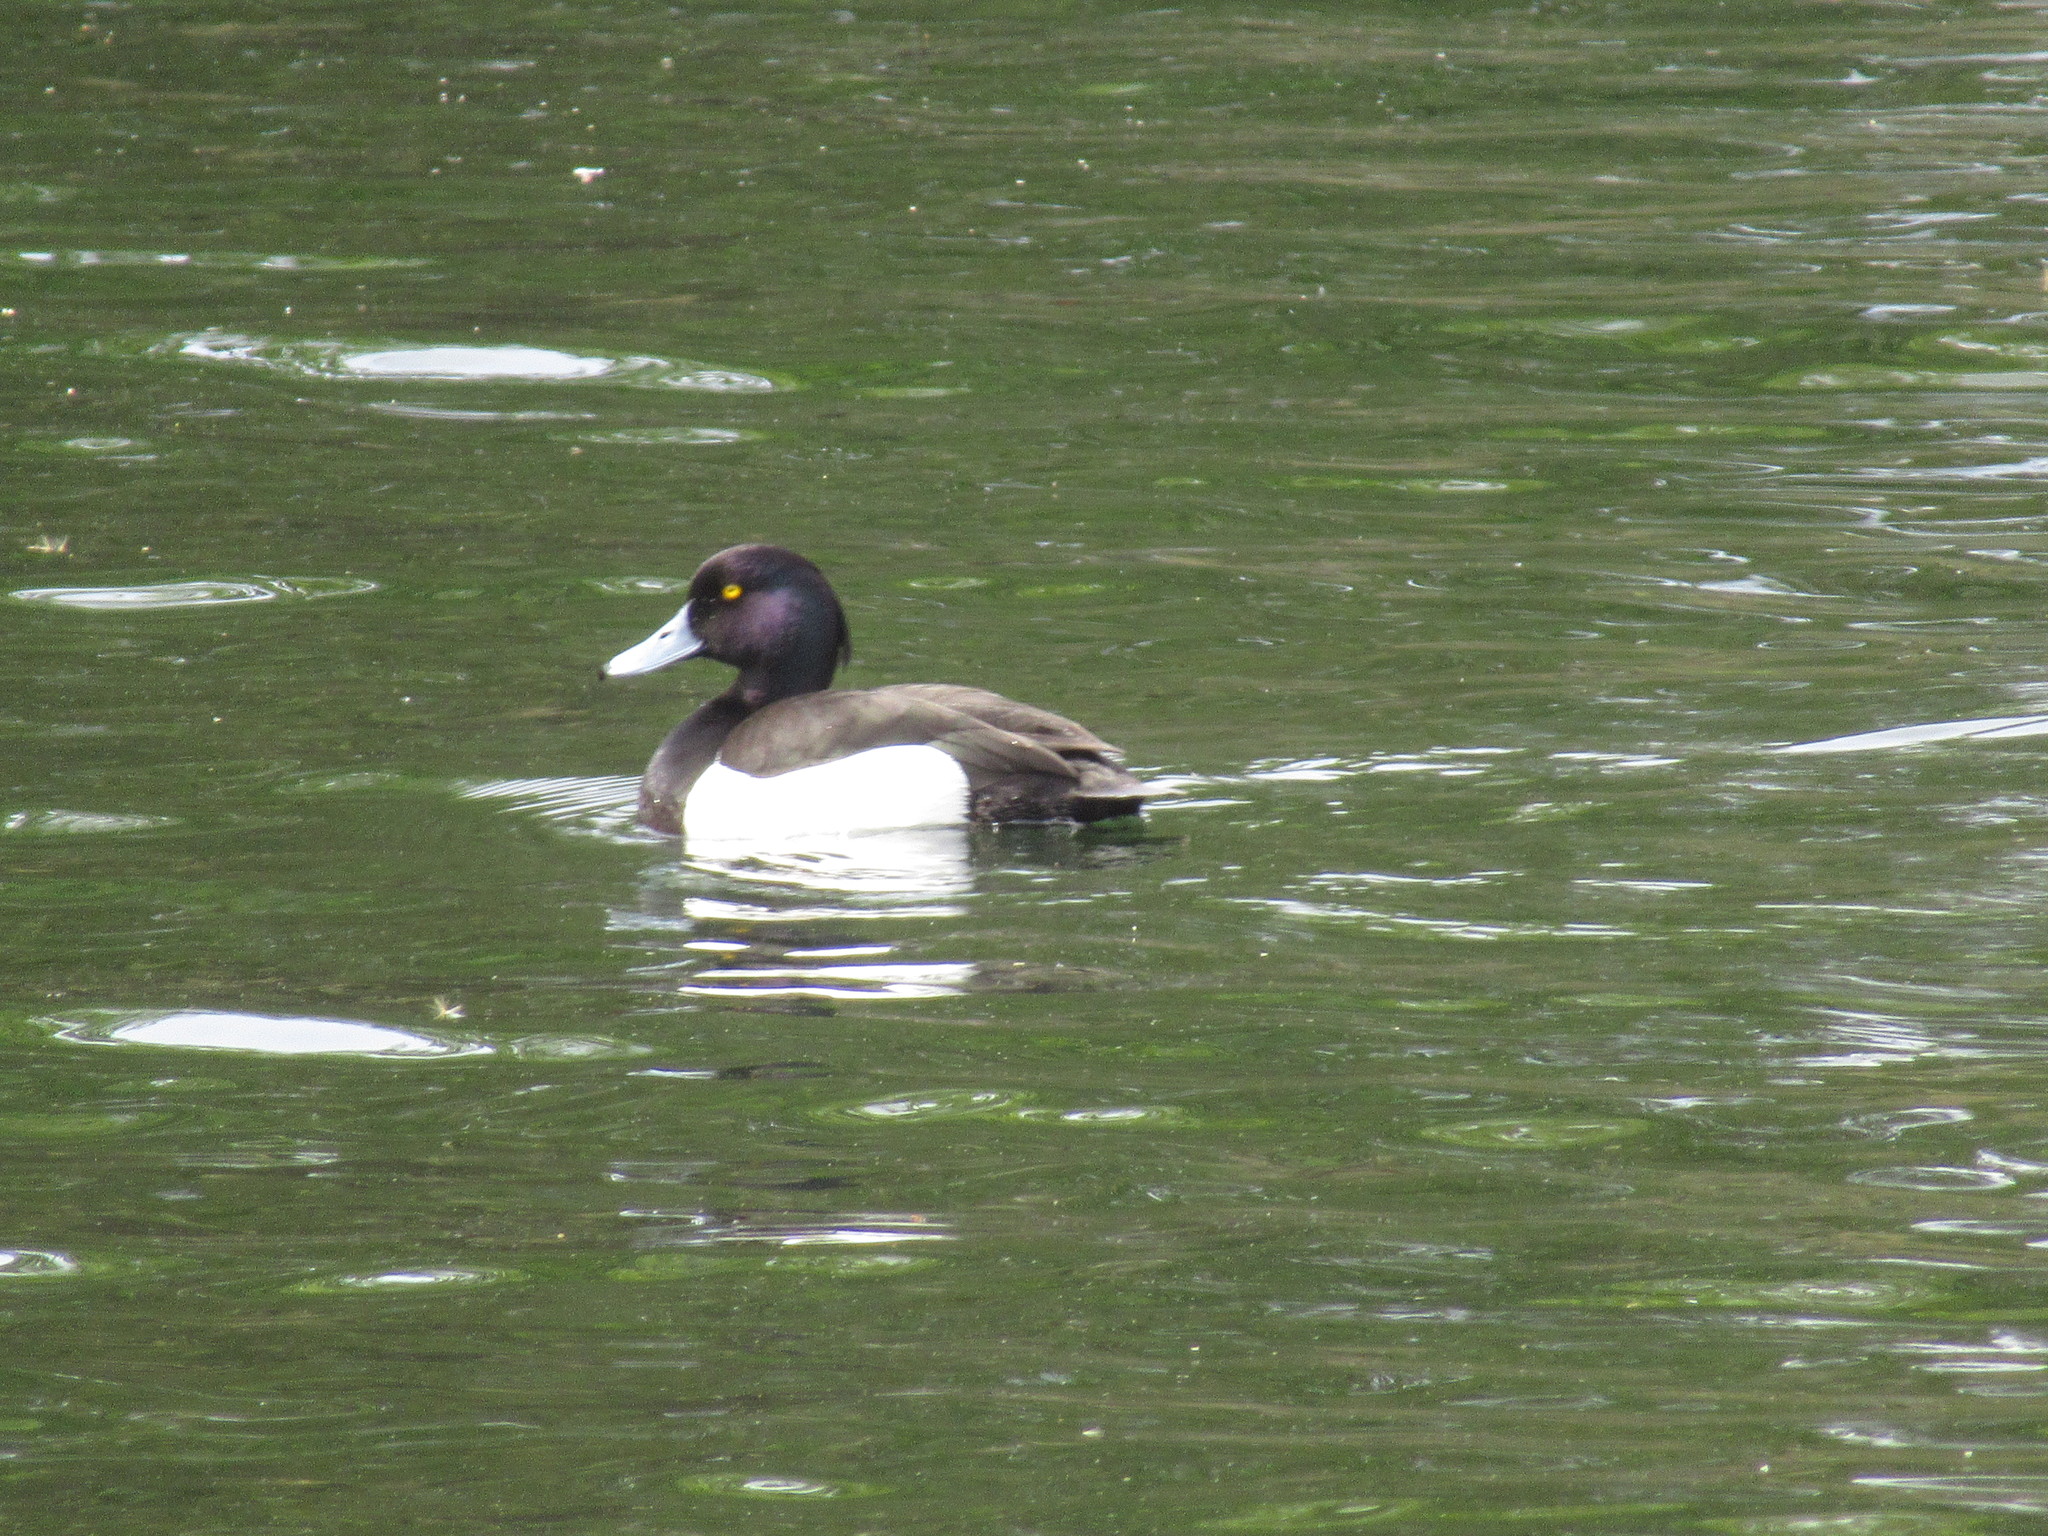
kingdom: Animalia
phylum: Chordata
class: Aves
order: Anseriformes
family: Anatidae
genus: Aythya
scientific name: Aythya fuligula
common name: Tufted duck
